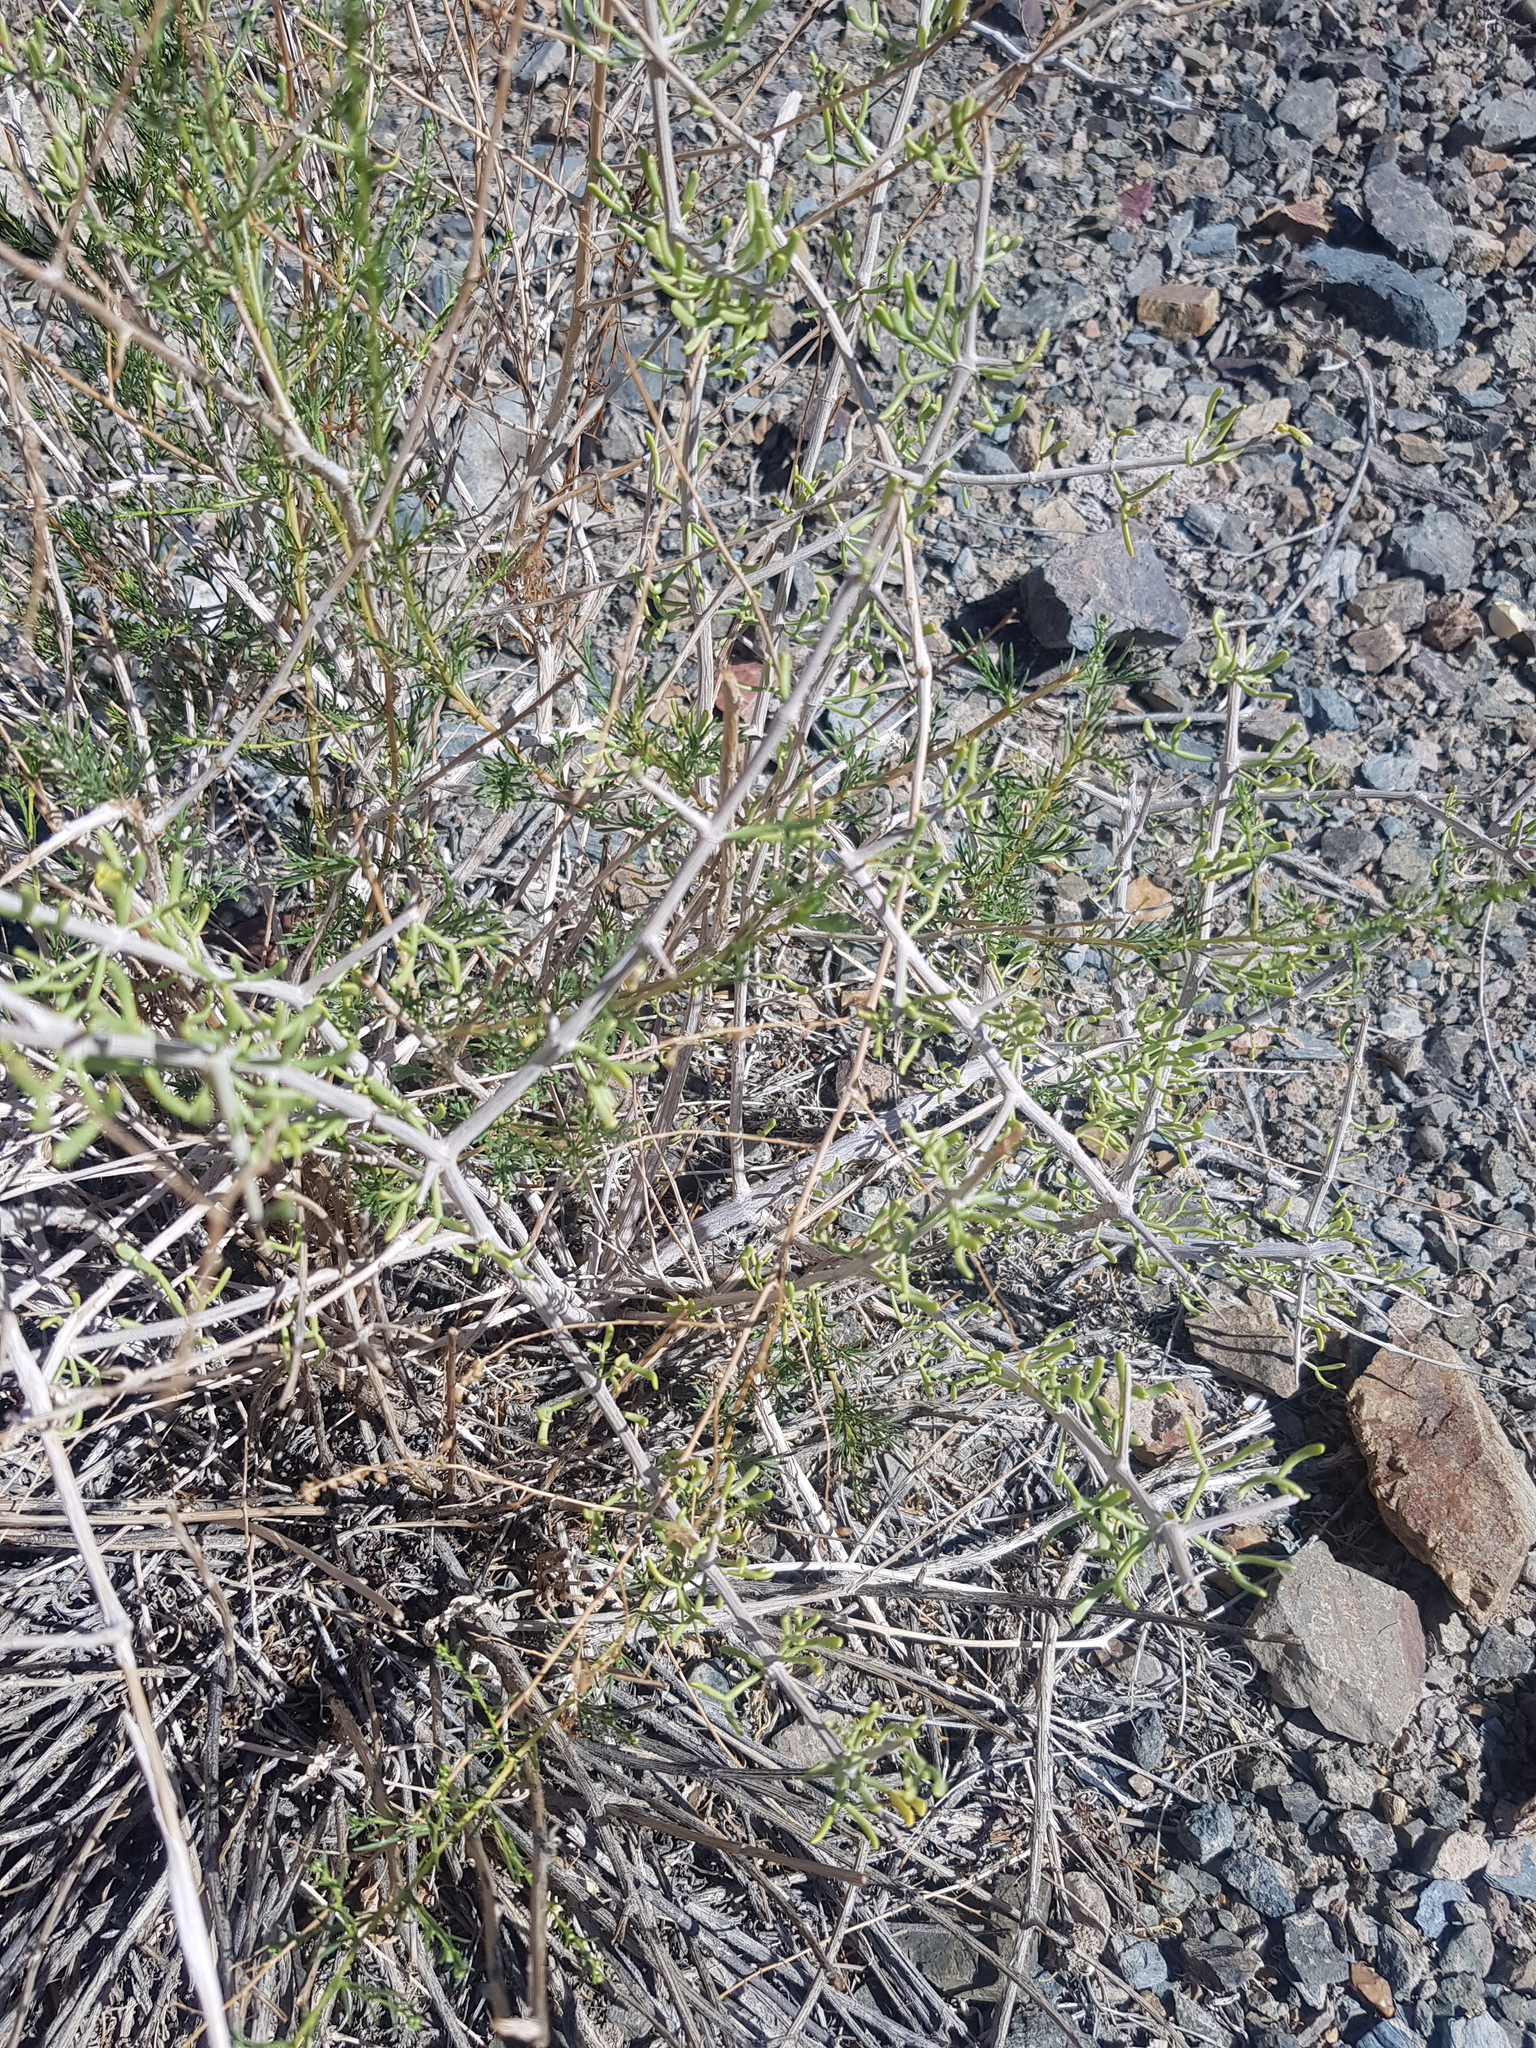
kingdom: Plantae
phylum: Tracheophyta
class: Magnoliopsida
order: Zygophyllales
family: Zygophyllaceae
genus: Zygophyllum
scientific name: Zygophyllum xanthoxylum
